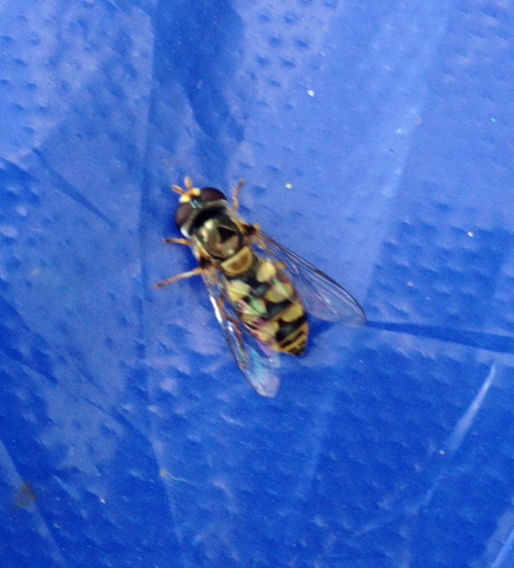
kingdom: Animalia
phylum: Arthropoda
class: Insecta
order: Diptera
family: Syrphidae
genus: Simosyrphus
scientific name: Simosyrphus grandicornis
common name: Hoverfly
